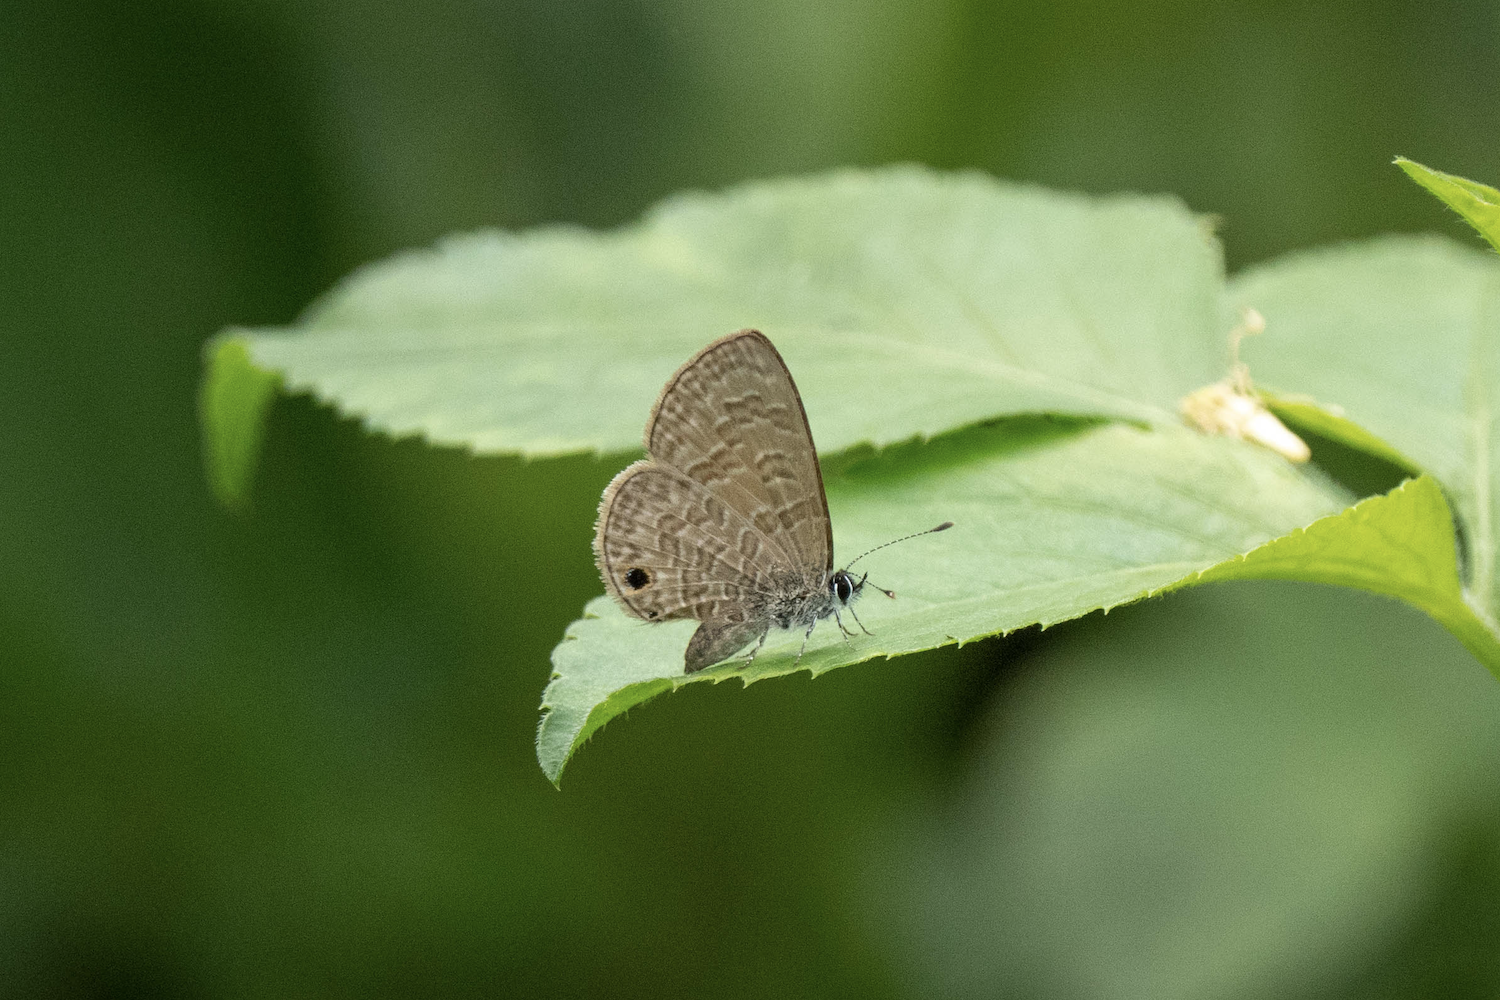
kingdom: Animalia
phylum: Arthropoda
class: Insecta
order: Lepidoptera
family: Lycaenidae
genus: Prosotas
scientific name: Prosotas dubiosa
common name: Tailless lineblue
